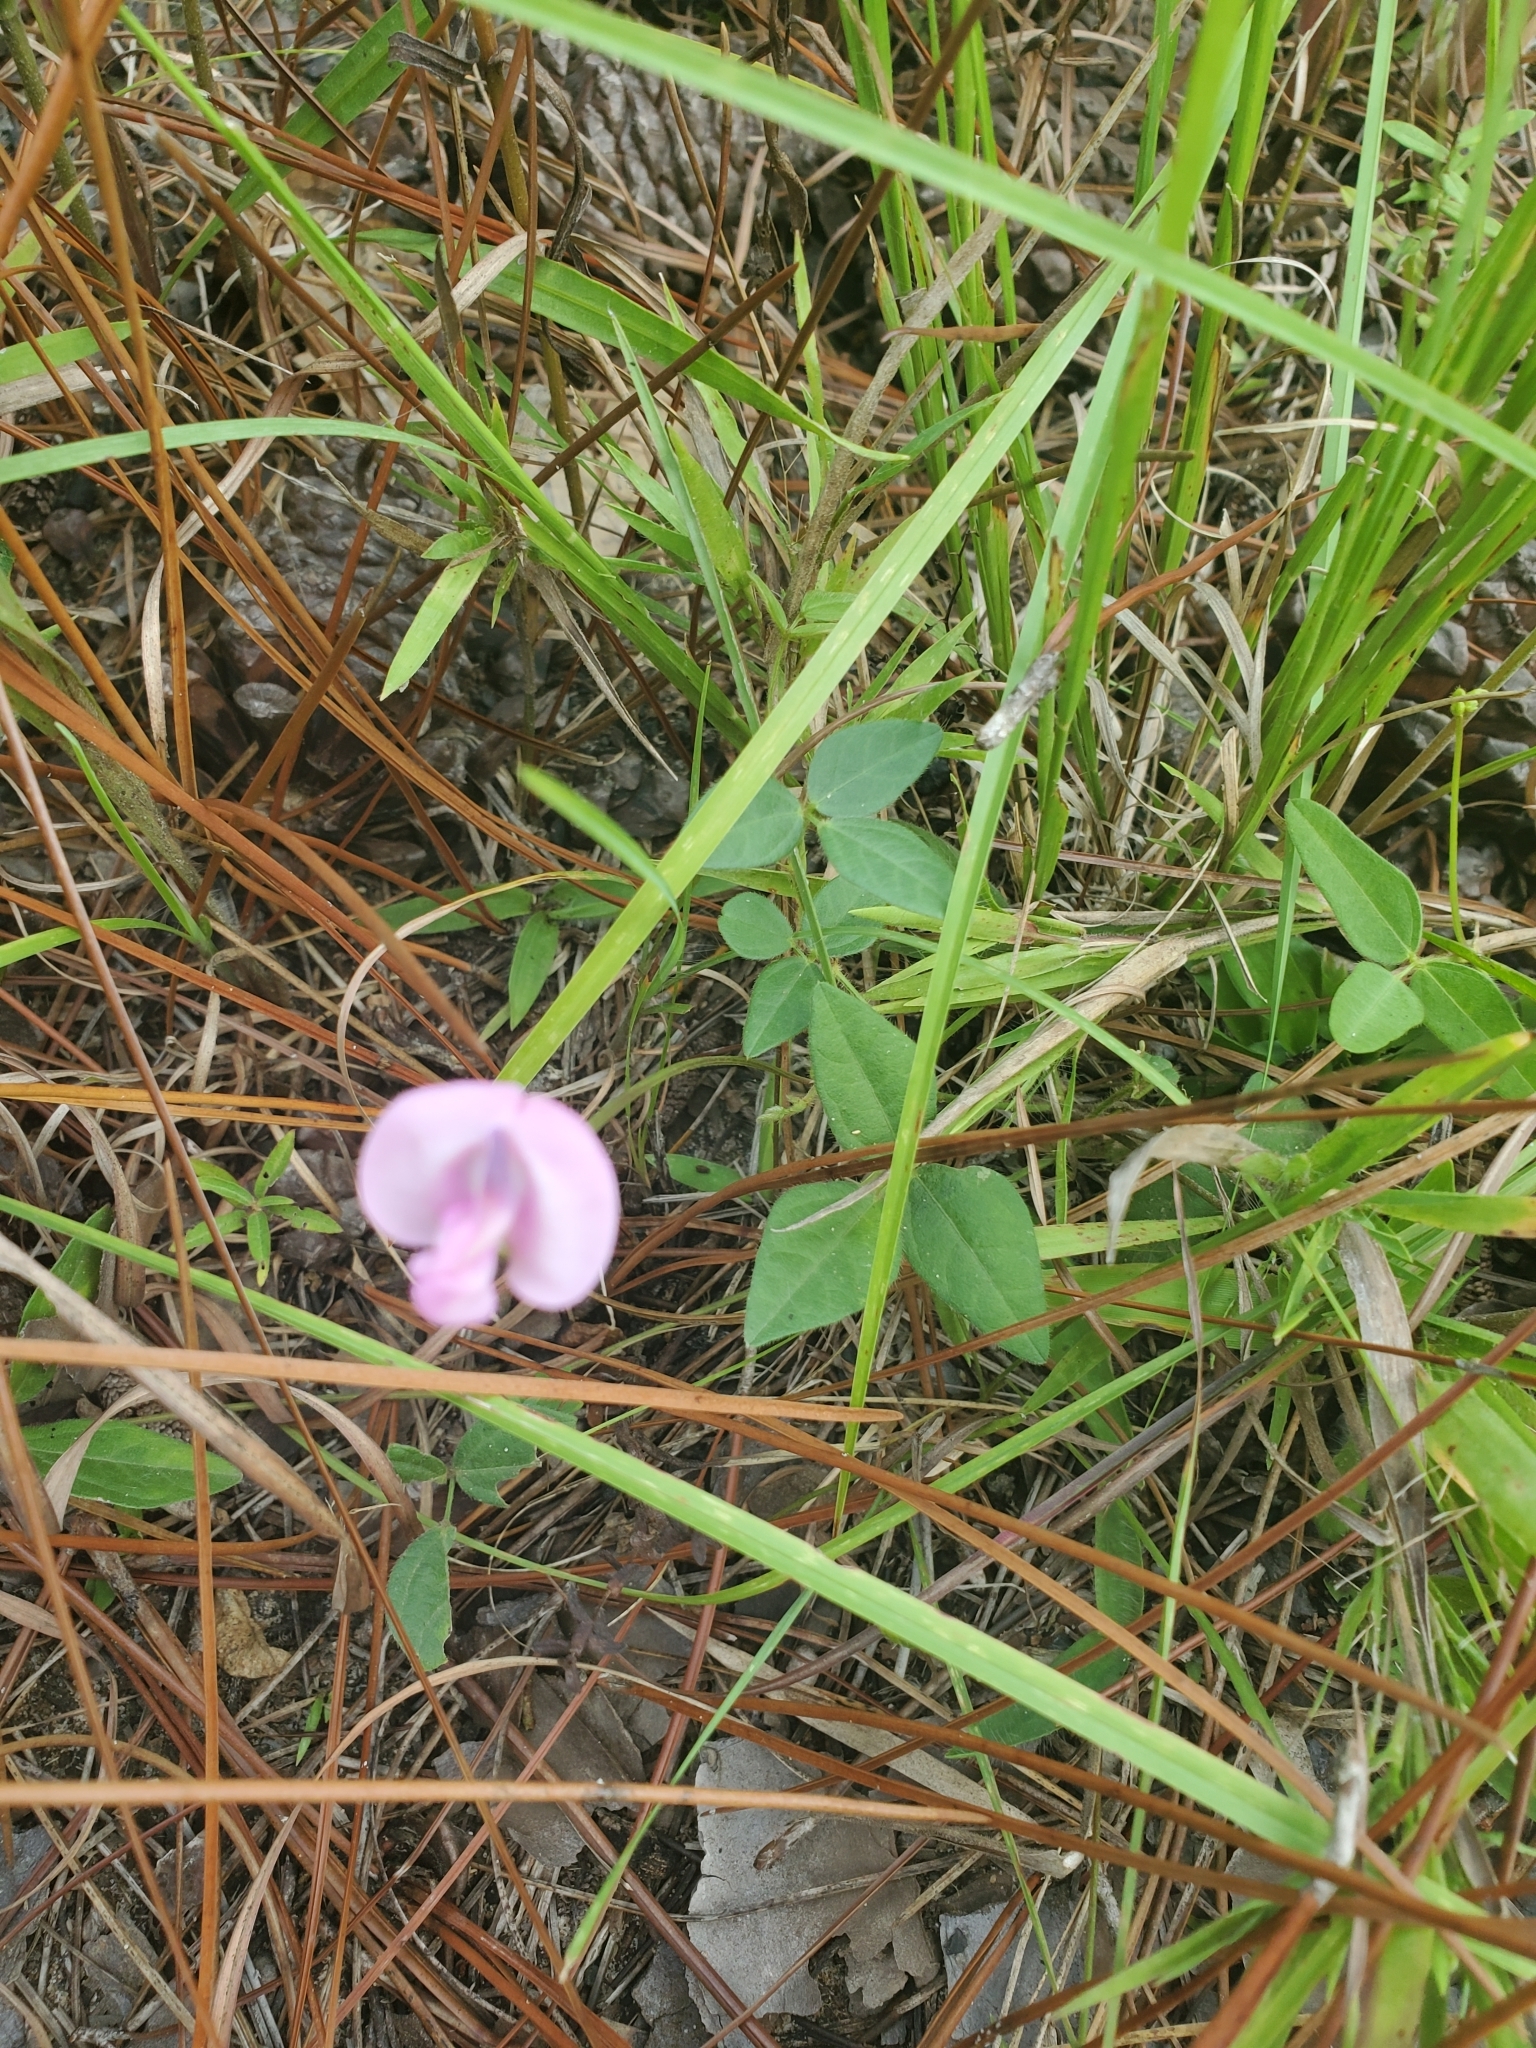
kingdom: Plantae
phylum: Tracheophyta
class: Magnoliopsida
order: Fabales
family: Fabaceae
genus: Strophostyles
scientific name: Strophostyles umbellata
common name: Perennial wild bean
